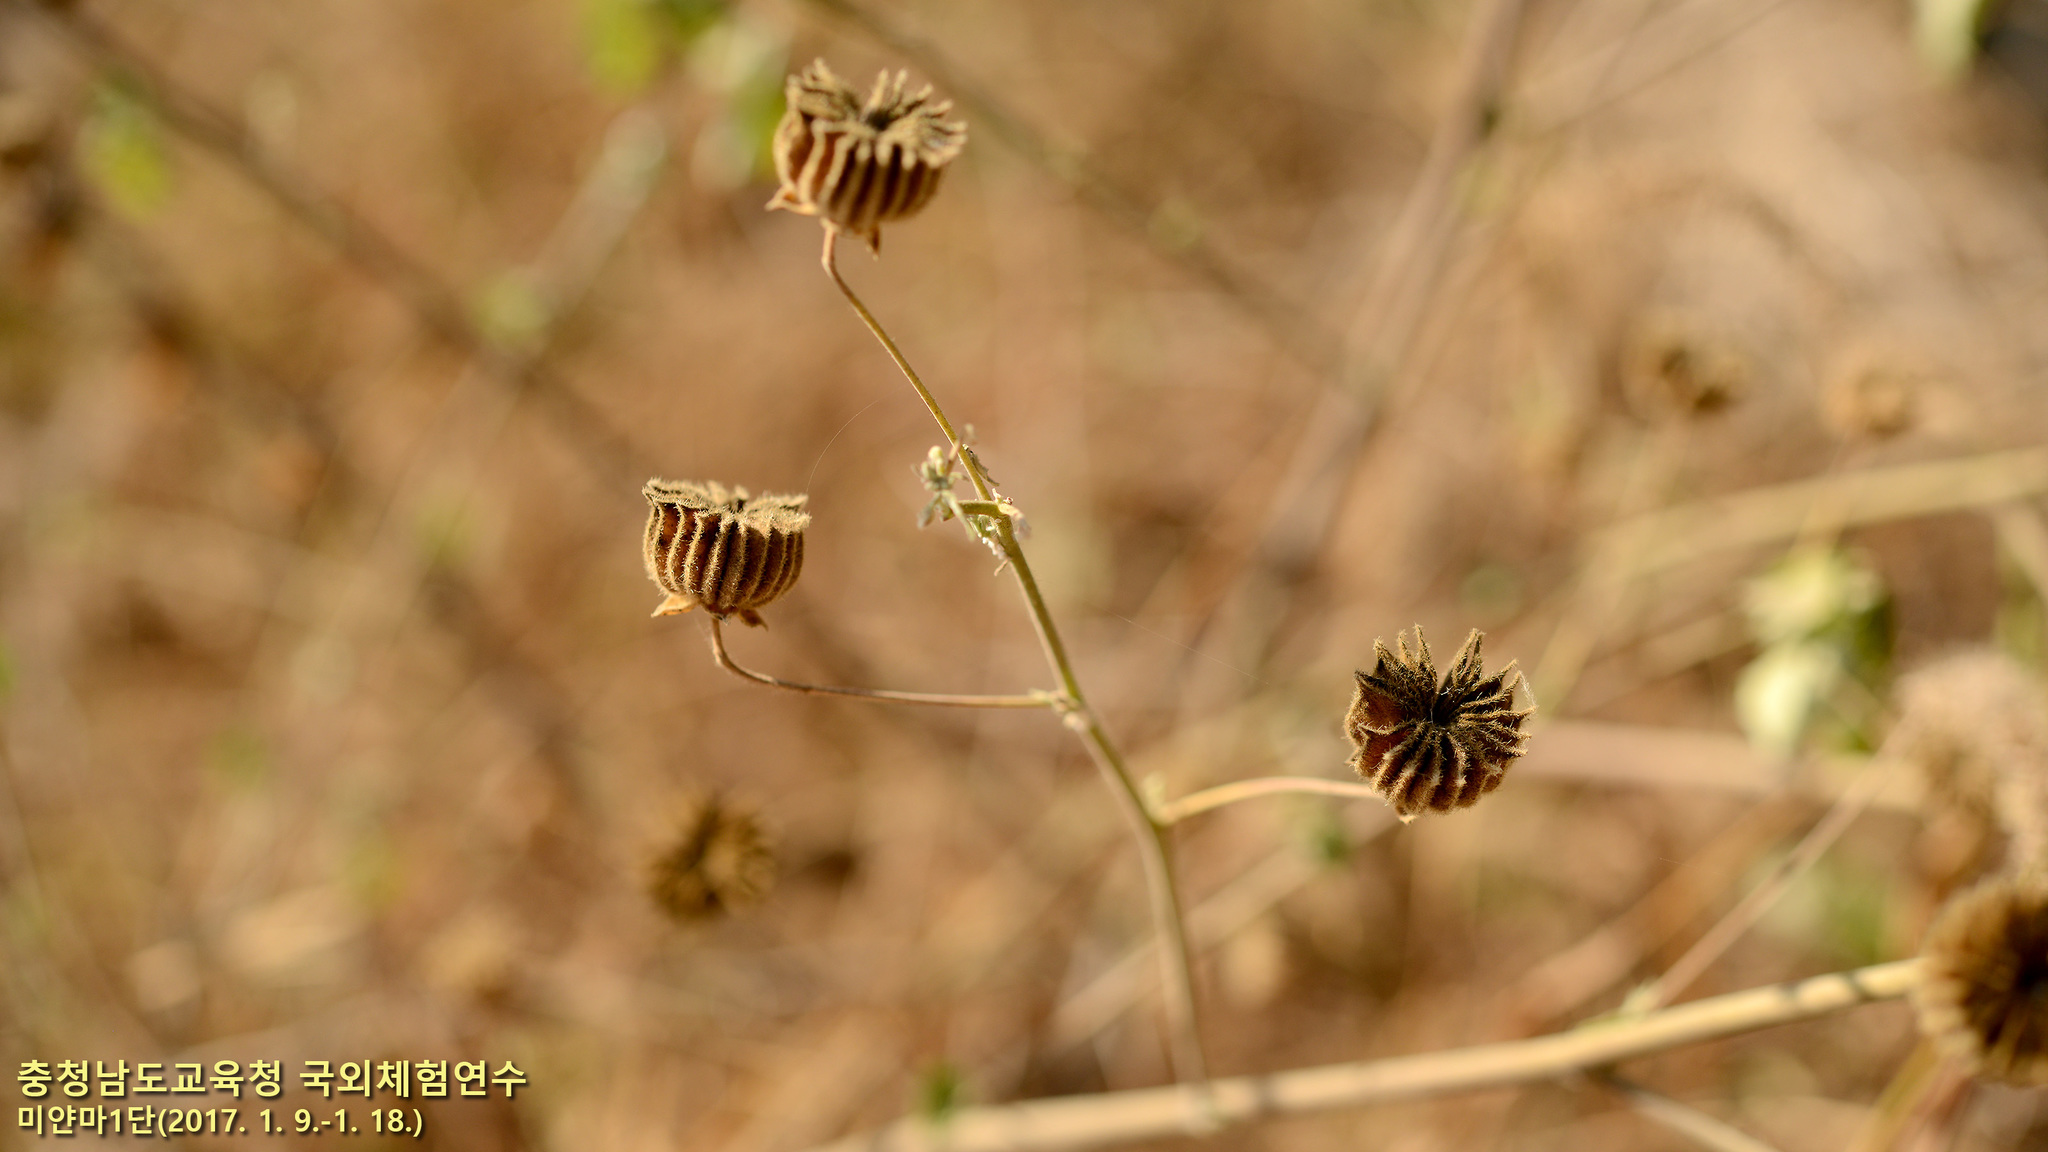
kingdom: Plantae
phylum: Tracheophyta
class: Magnoliopsida
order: Malvales
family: Malvaceae
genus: Abutilon
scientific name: Abutilon indicum
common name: Indian abutilon
